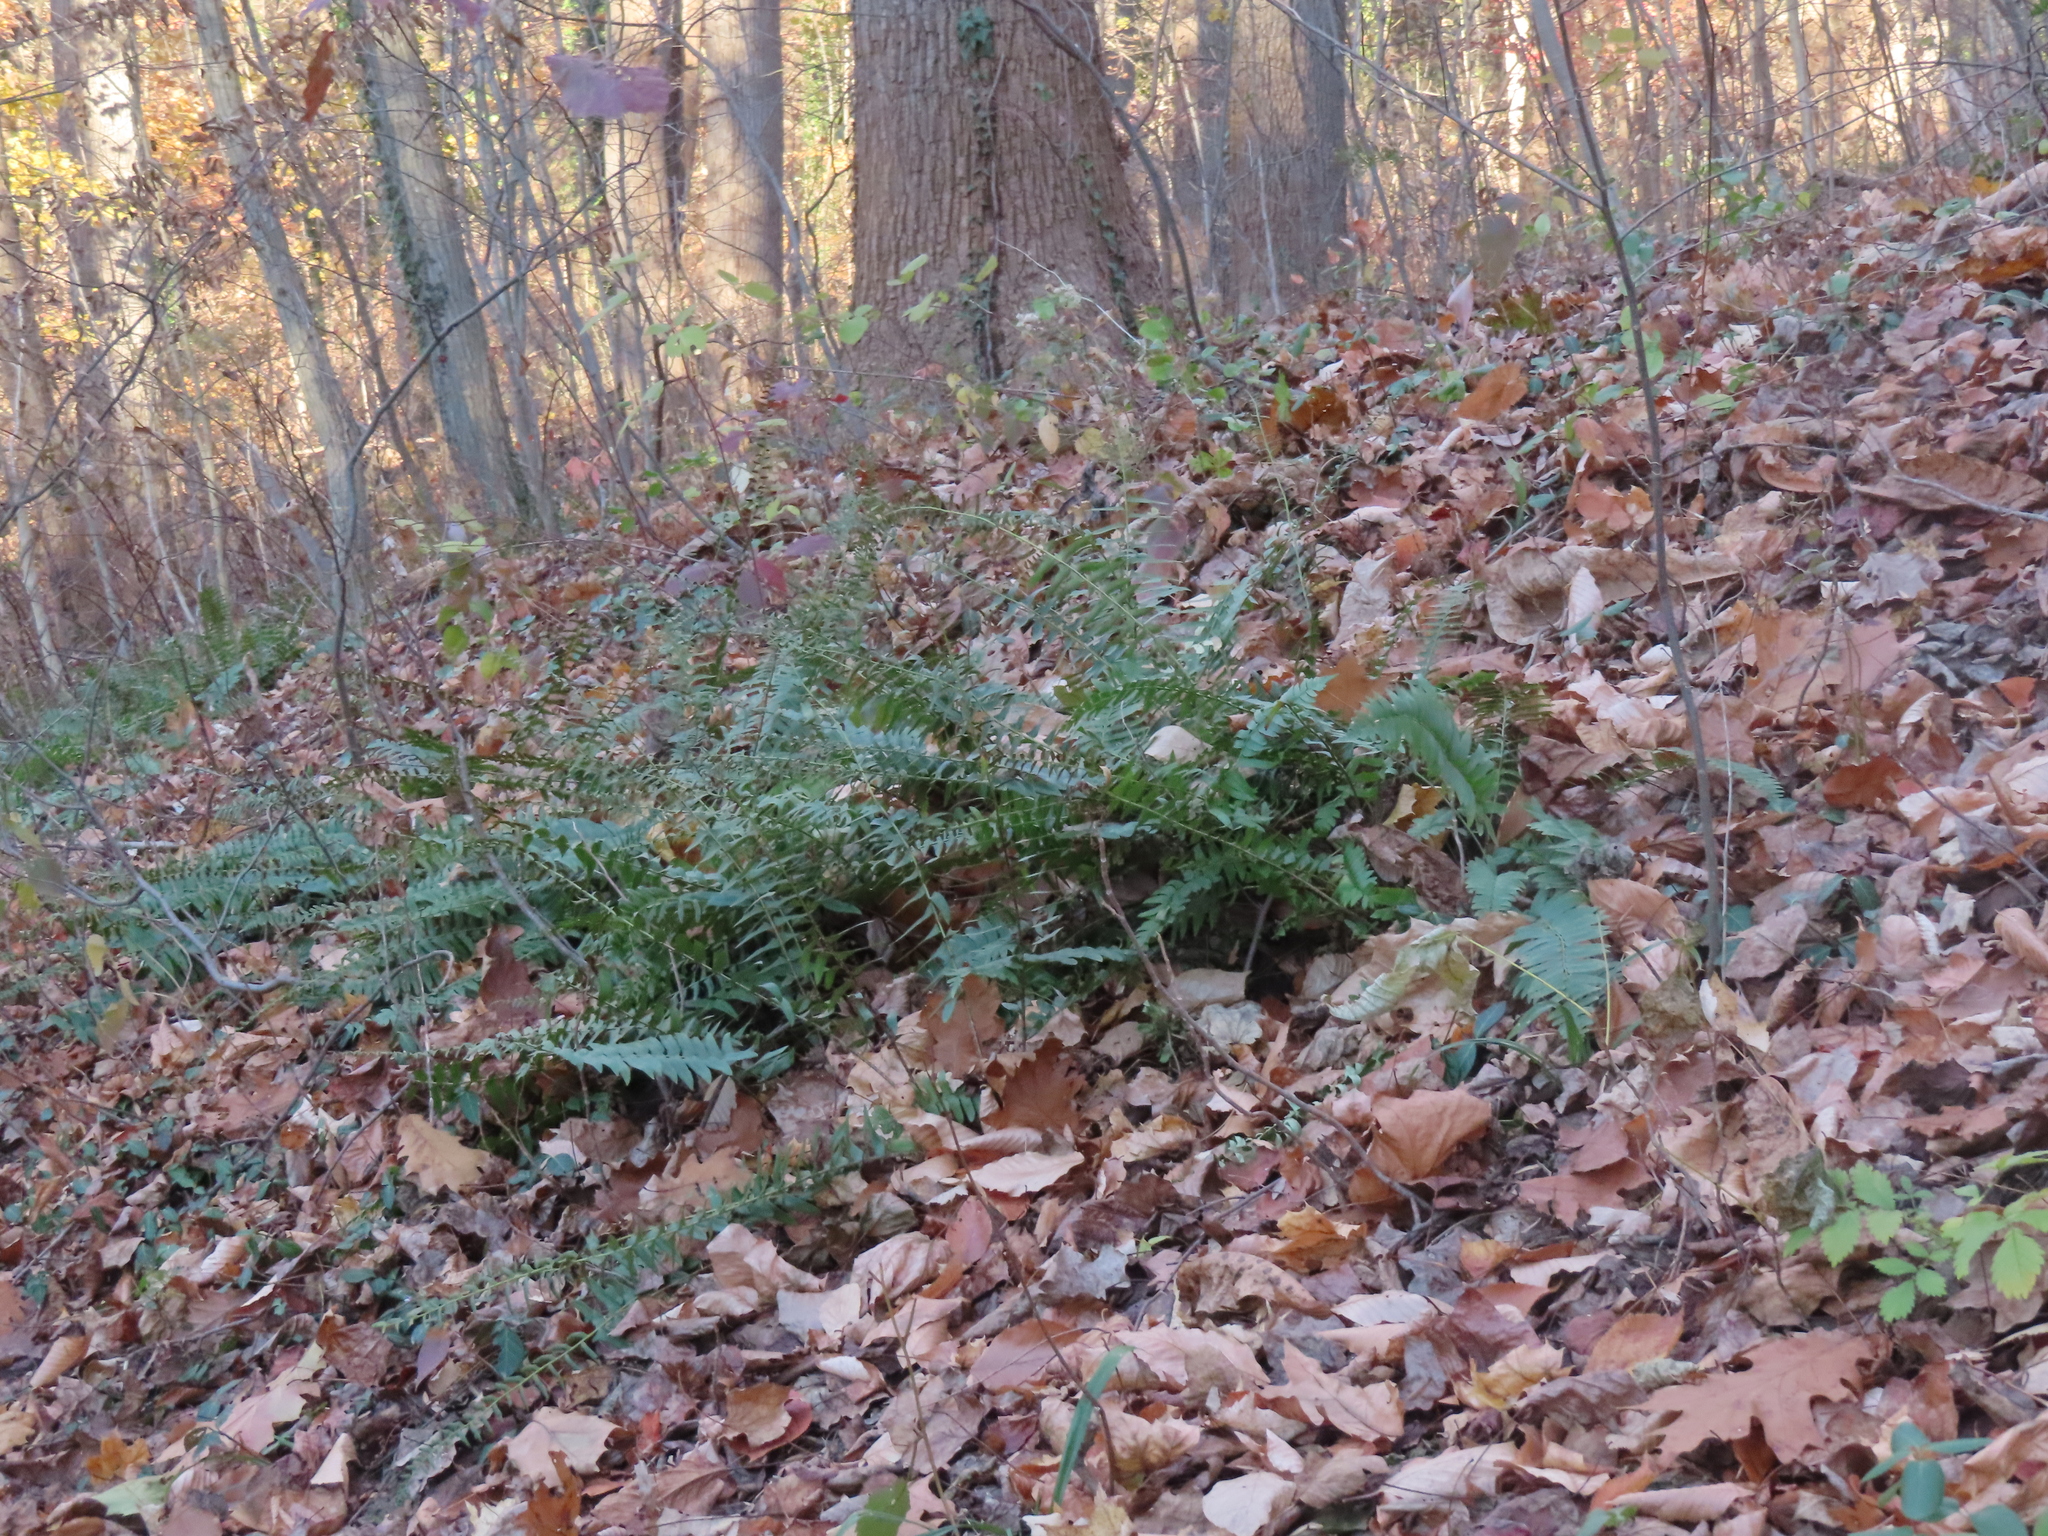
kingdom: Plantae
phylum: Tracheophyta
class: Polypodiopsida
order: Polypodiales
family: Dryopteridaceae
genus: Polystichum
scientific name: Polystichum acrostichoides
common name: Christmas fern
